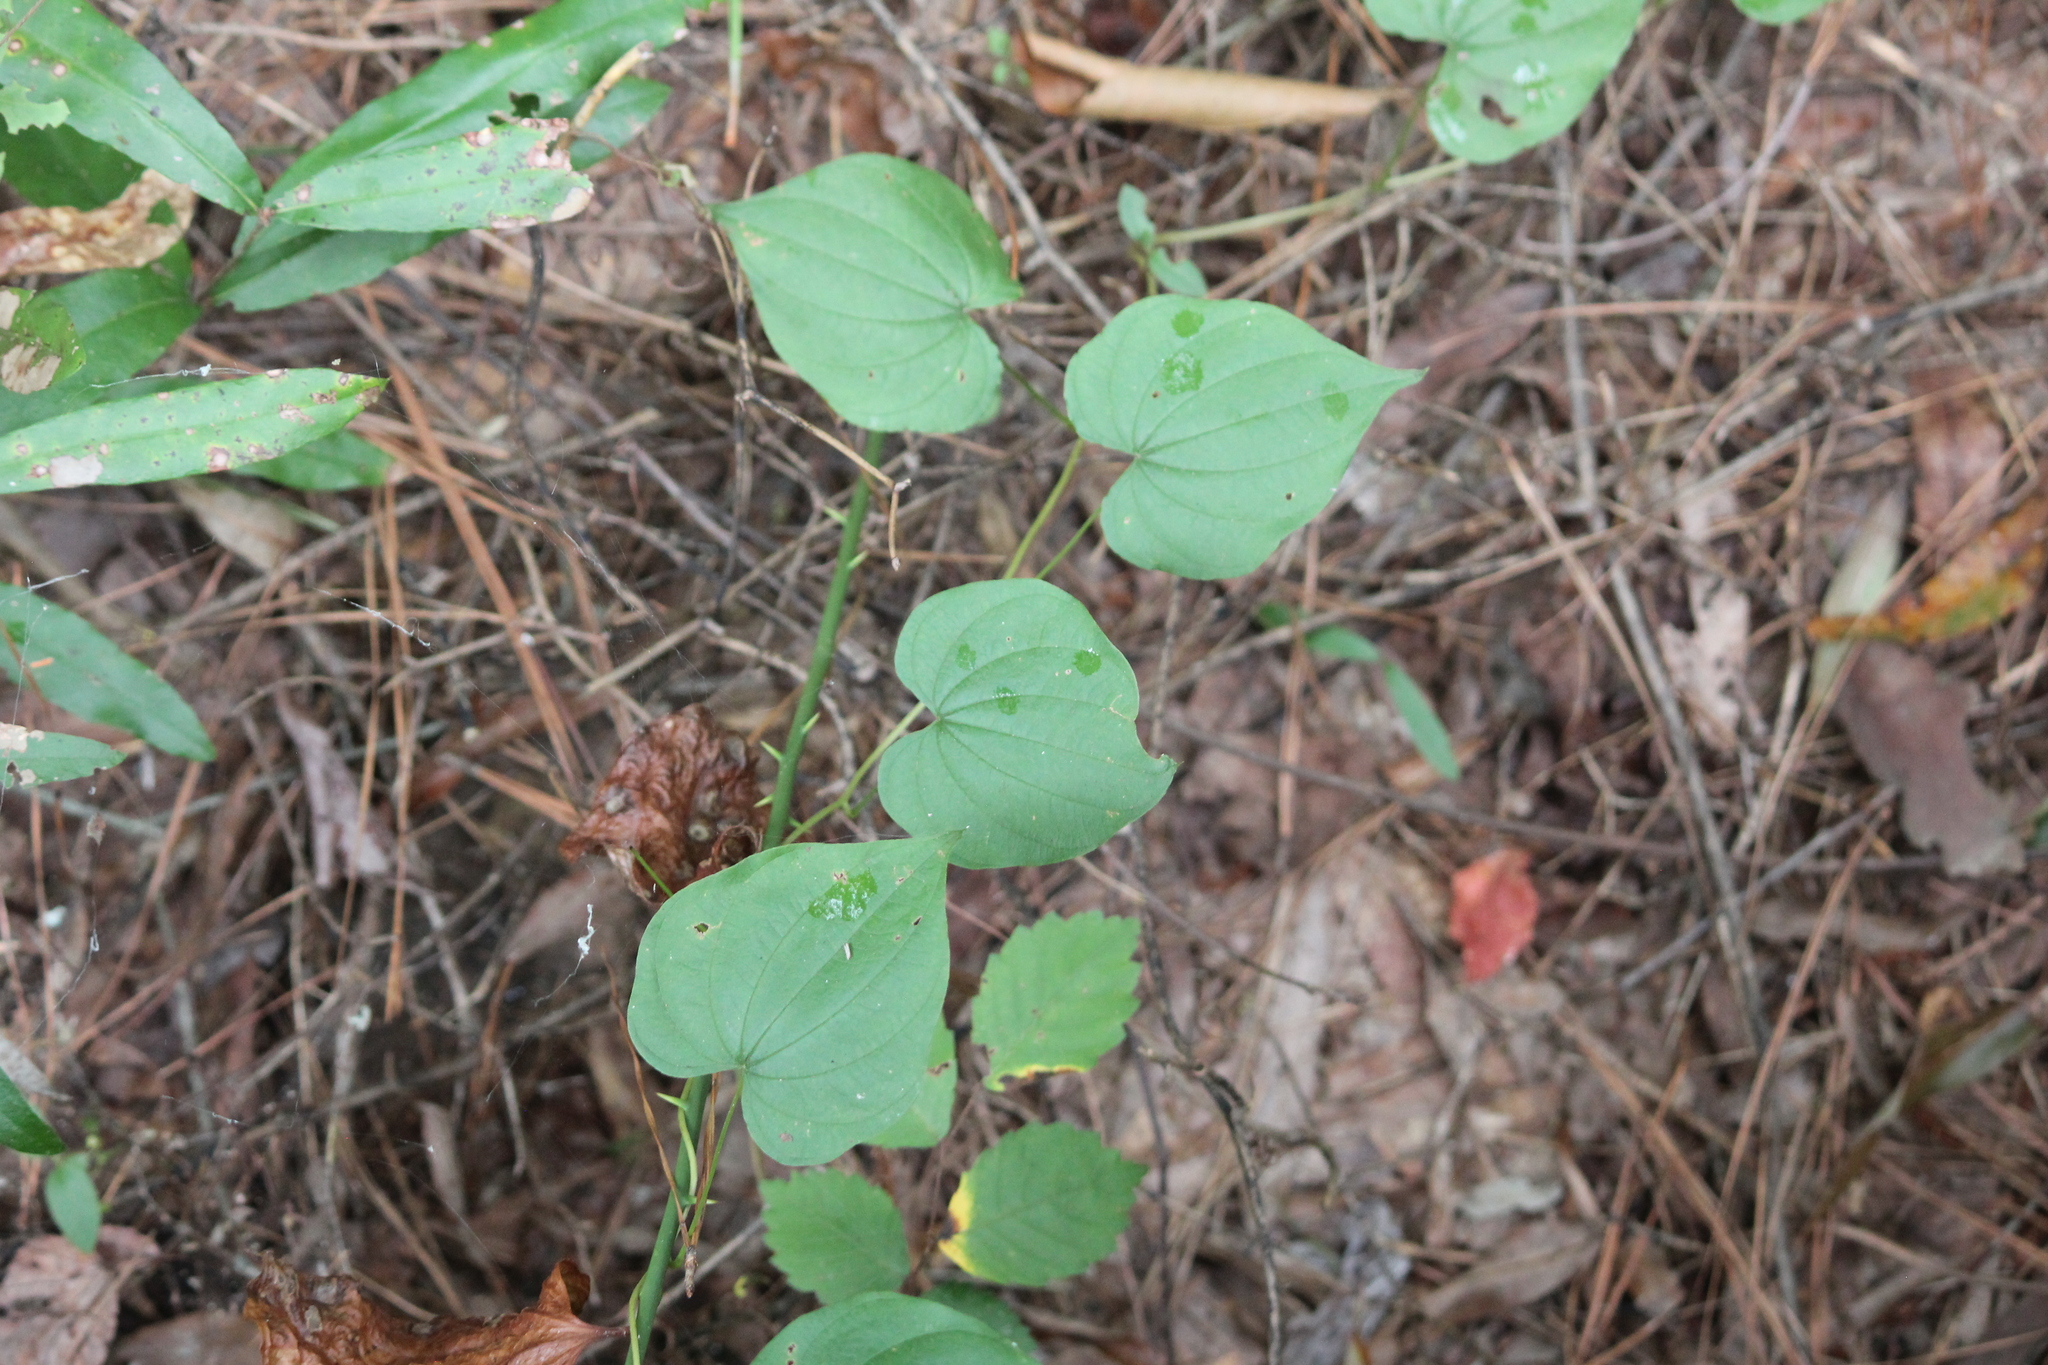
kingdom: Plantae
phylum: Tracheophyta
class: Liliopsida
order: Dioscoreales
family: Dioscoreaceae
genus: Dioscorea
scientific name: Dioscorea villosa
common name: Wild yam
